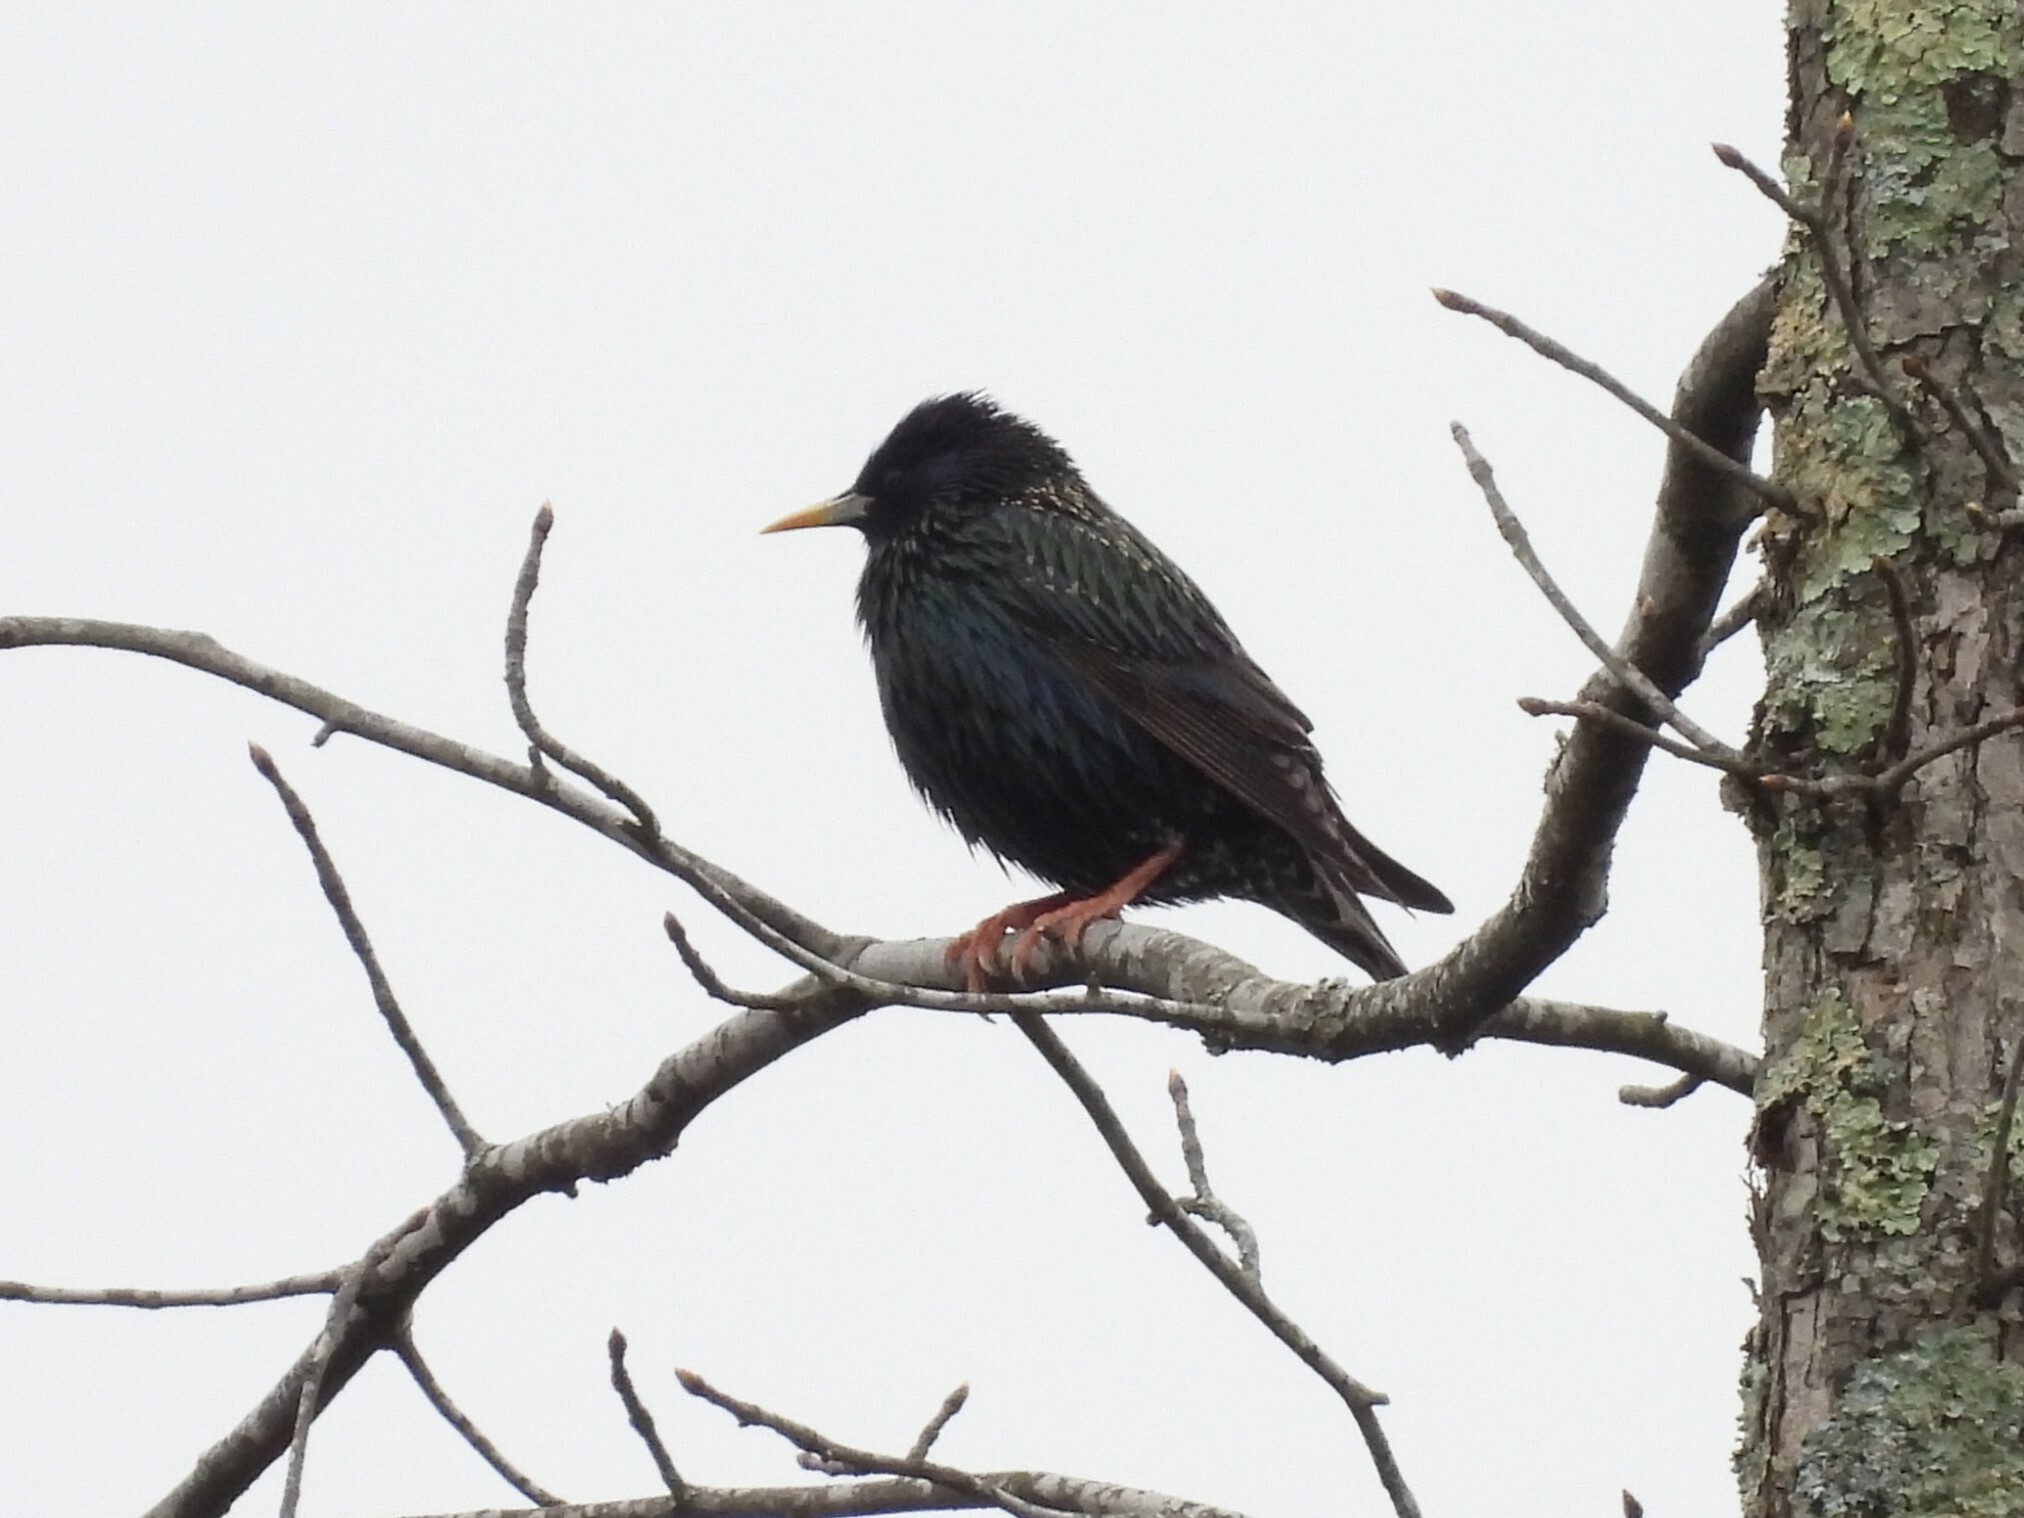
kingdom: Animalia
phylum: Chordata
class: Aves
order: Passeriformes
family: Sturnidae
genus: Sturnus
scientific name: Sturnus vulgaris
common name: Common starling
